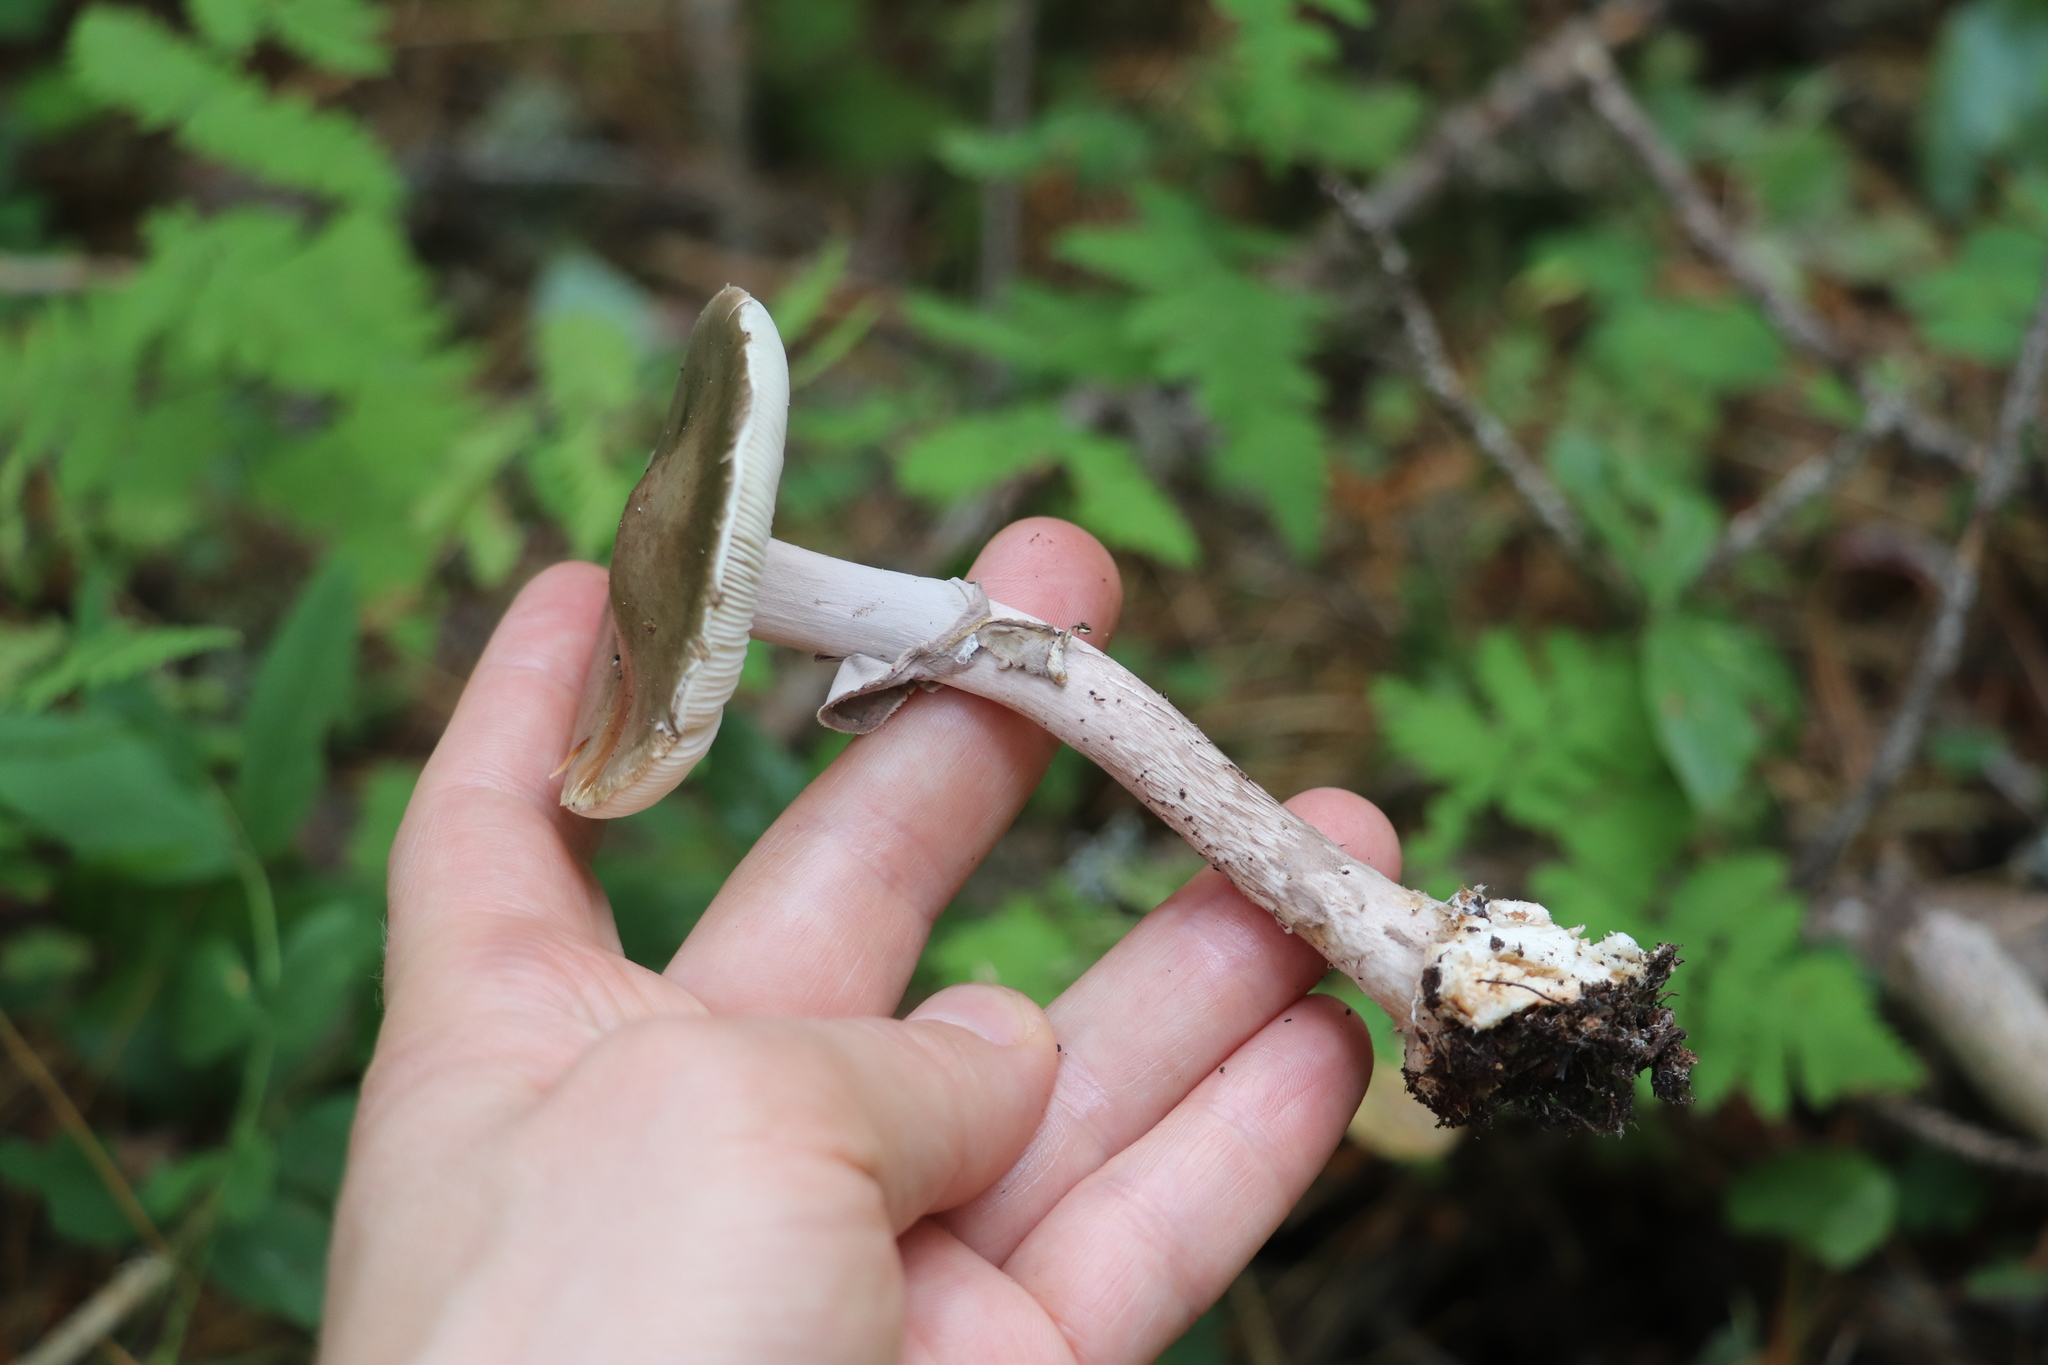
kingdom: Fungi
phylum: Basidiomycota
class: Agaricomycetes
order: Agaricales
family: Amanitaceae
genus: Amanita
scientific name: Amanita porphyria
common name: Grey veiled amanita
